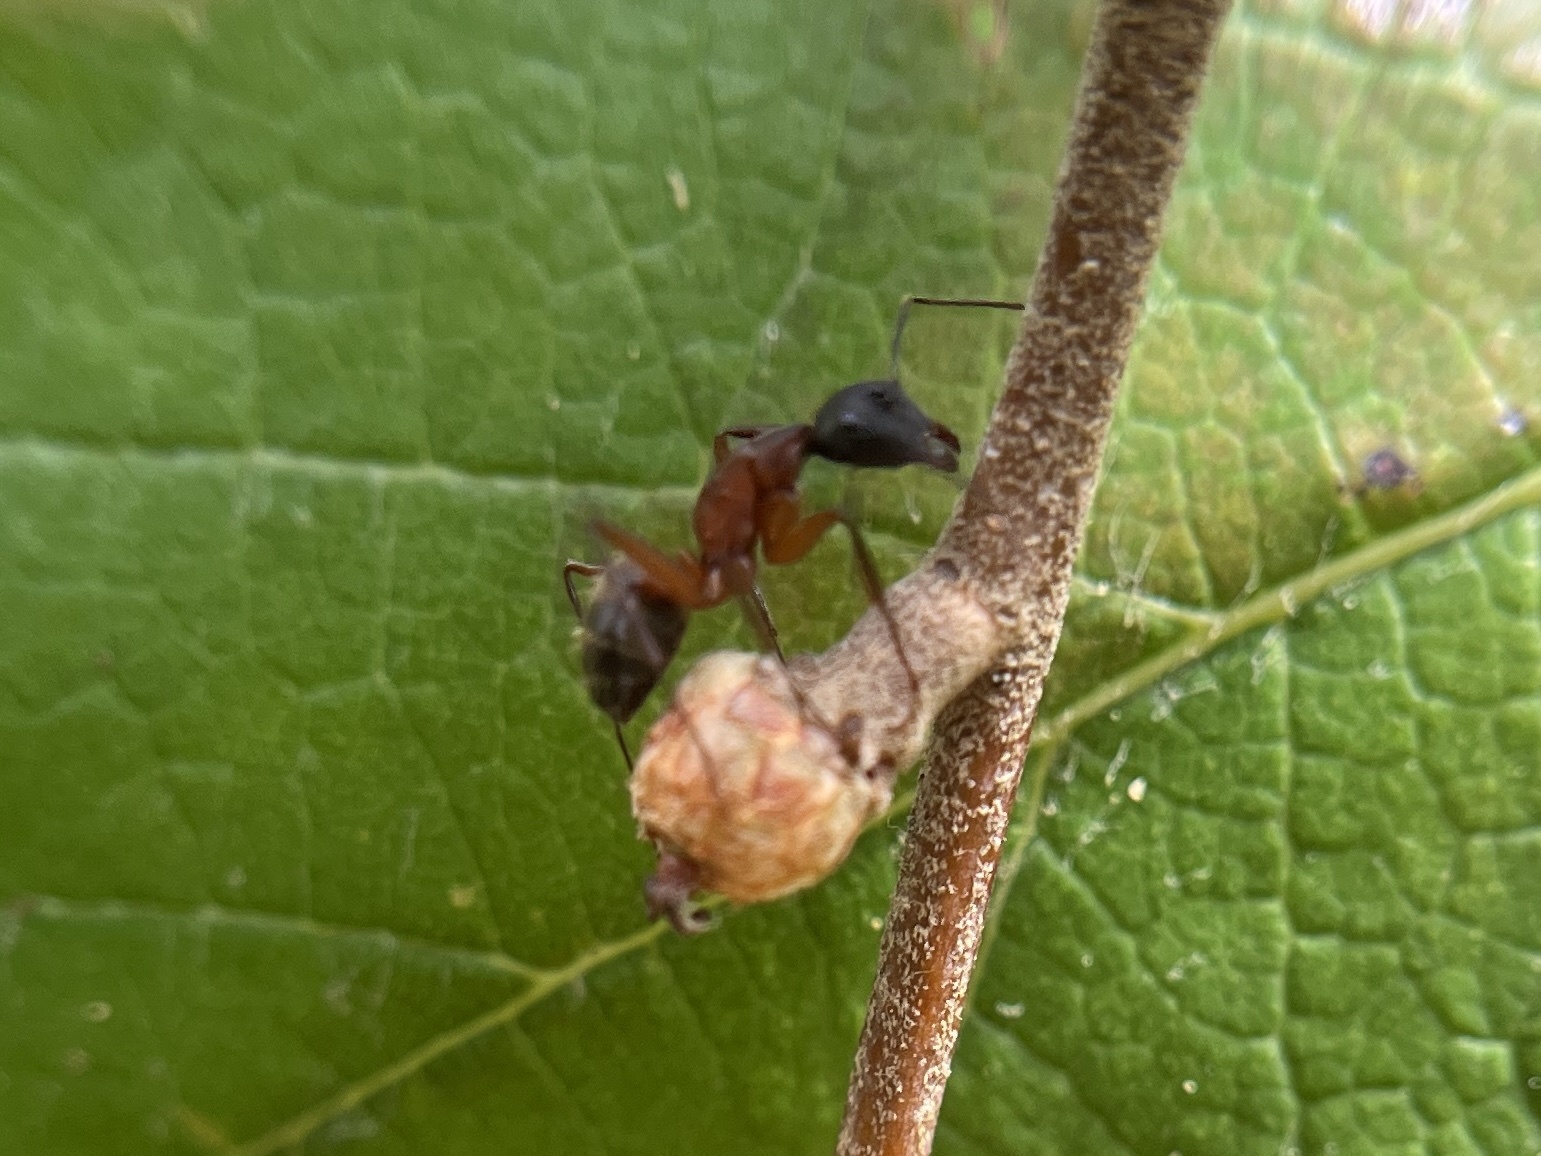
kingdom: Animalia
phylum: Arthropoda
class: Insecta
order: Hymenoptera
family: Formicidae
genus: Camponotus
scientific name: Camponotus chromaiodes
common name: Red carpenter ant
